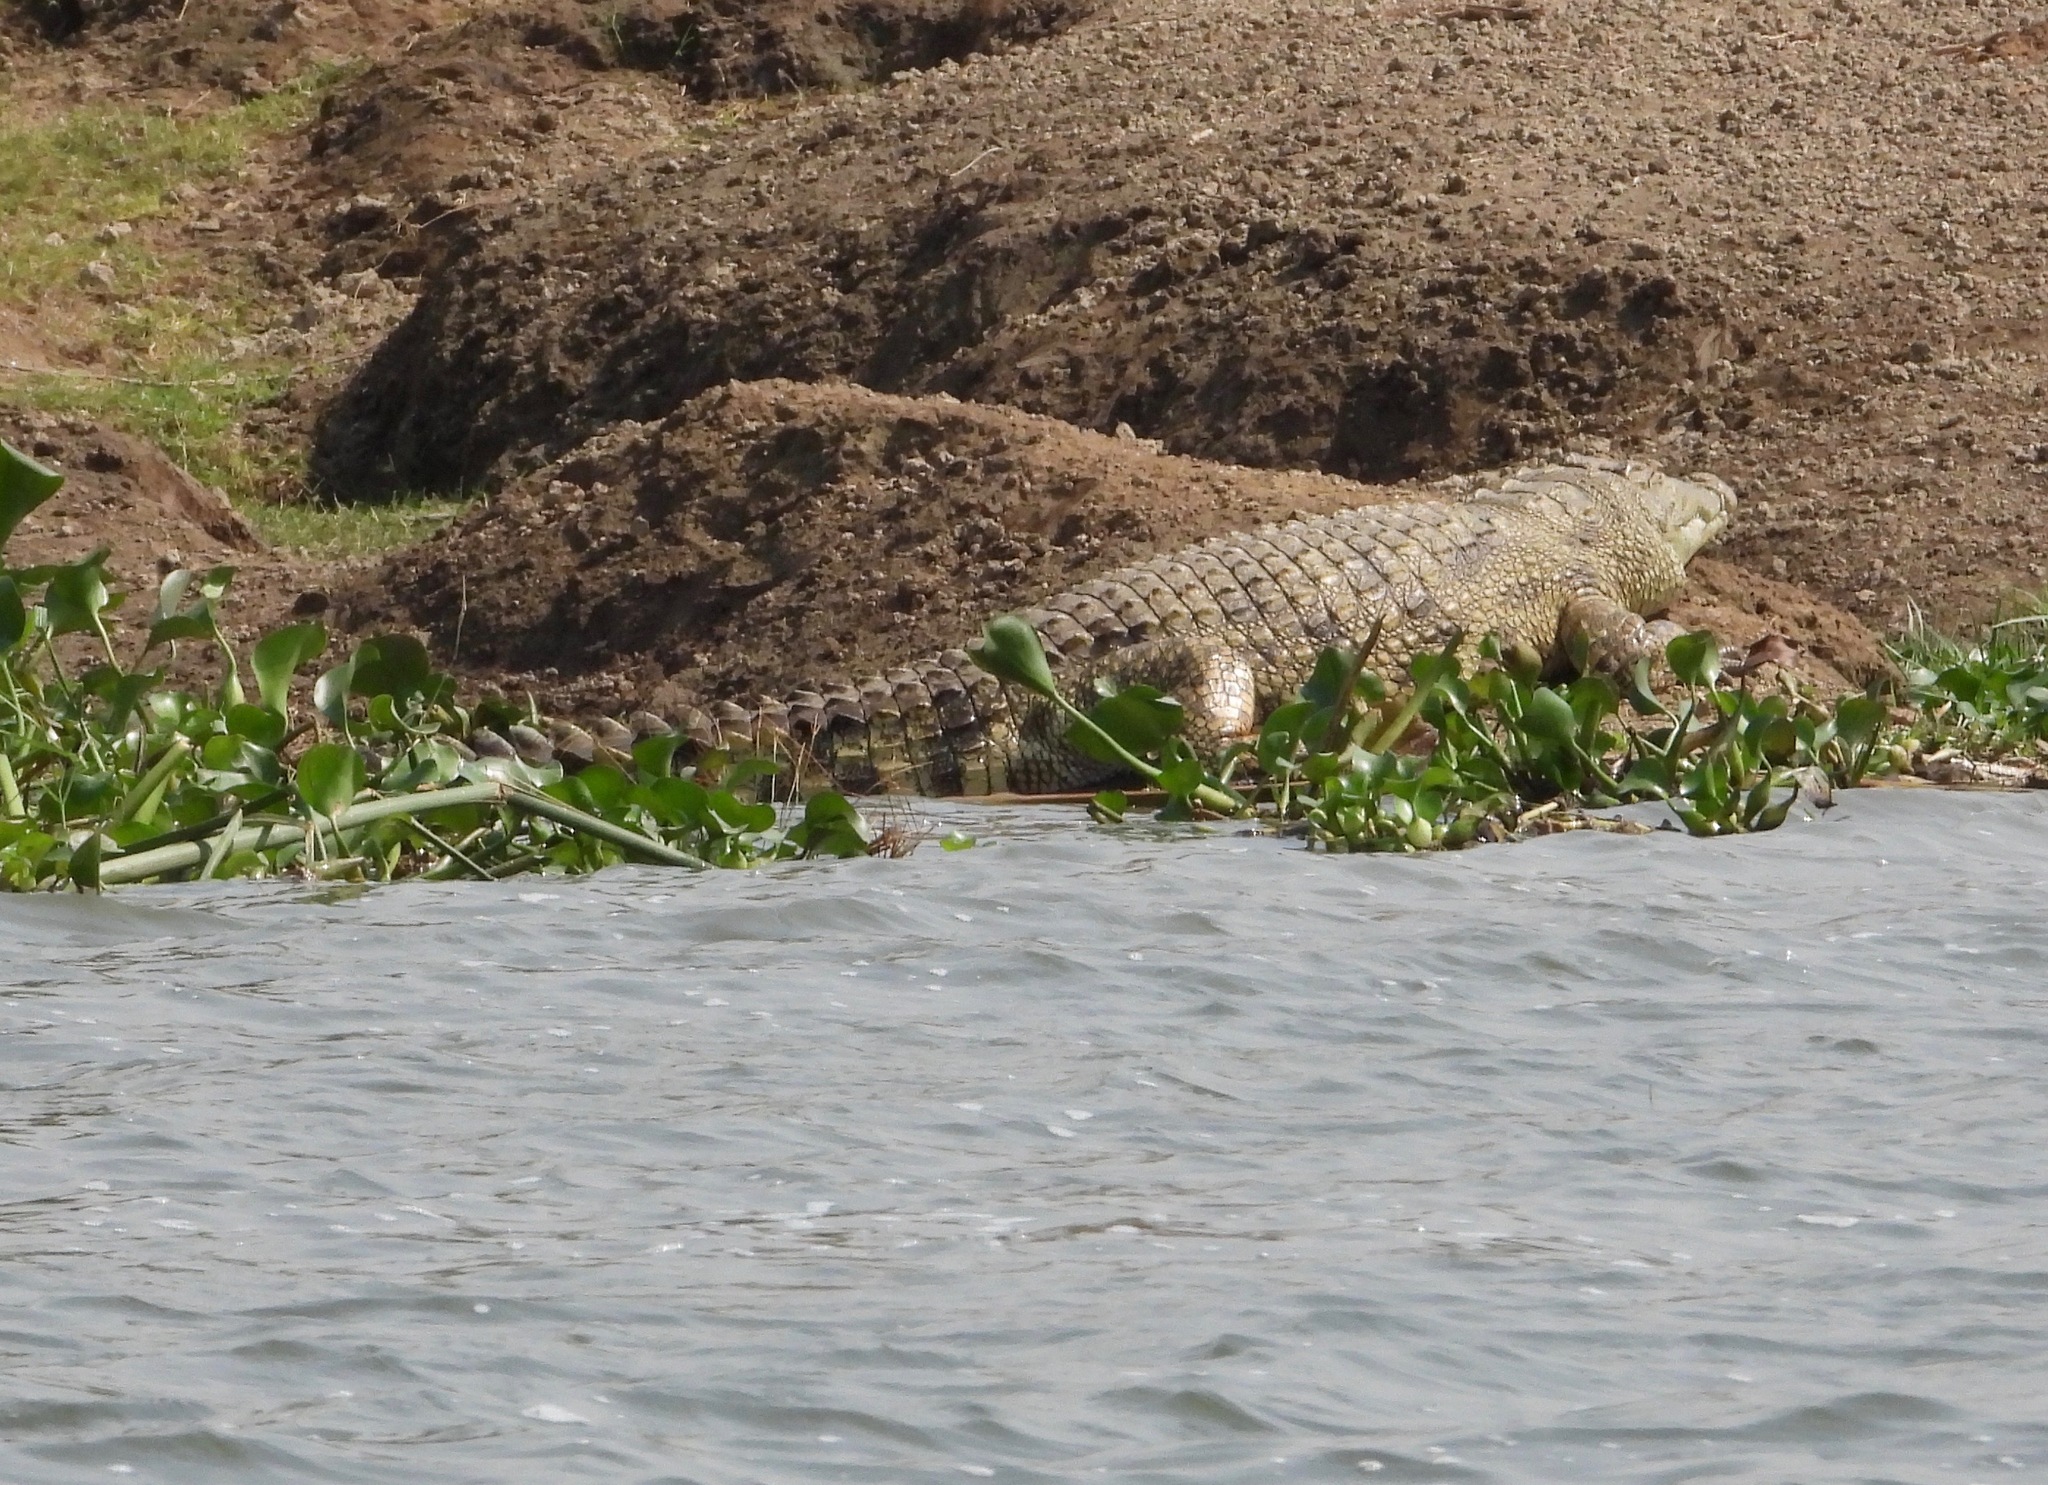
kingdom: Animalia
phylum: Chordata
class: Crocodylia
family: Crocodylidae
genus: Crocodylus
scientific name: Crocodylus niloticus
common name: Nile crocodile
